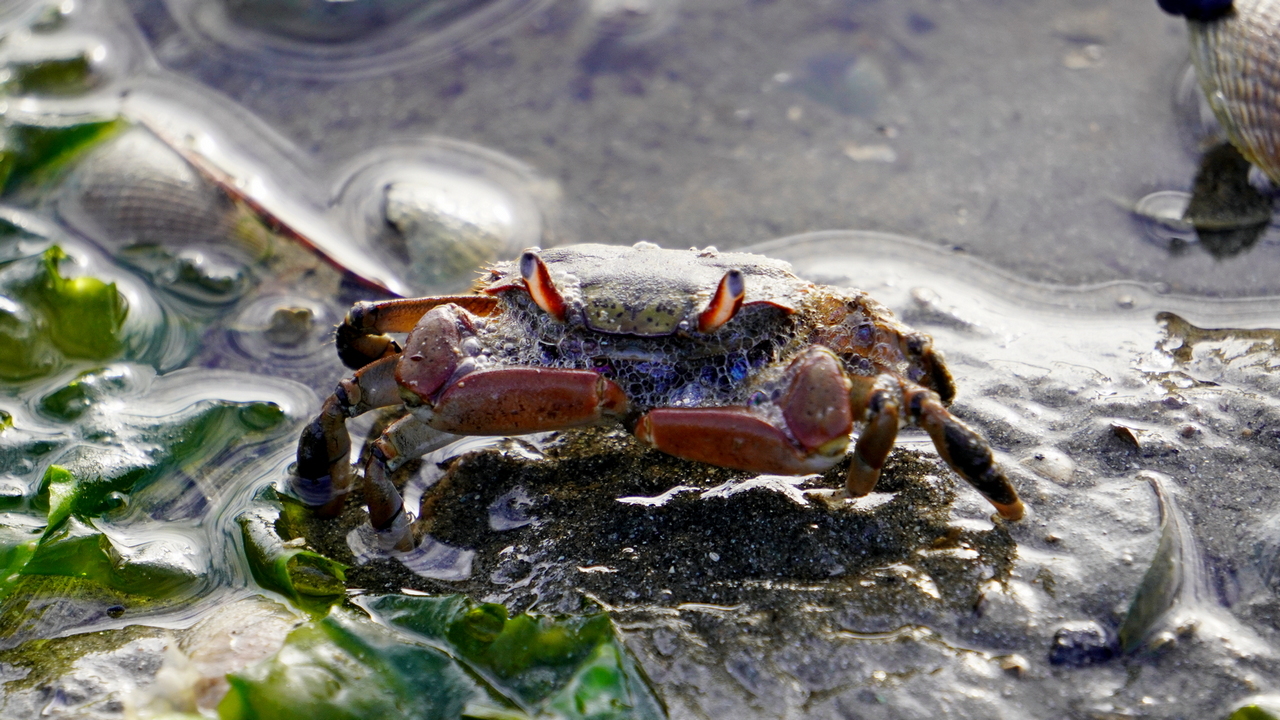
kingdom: Animalia
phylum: Arthropoda
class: Malacostraca
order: Decapoda
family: Macrophthalmidae
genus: Hemiplax
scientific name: Hemiplax hirtipes
